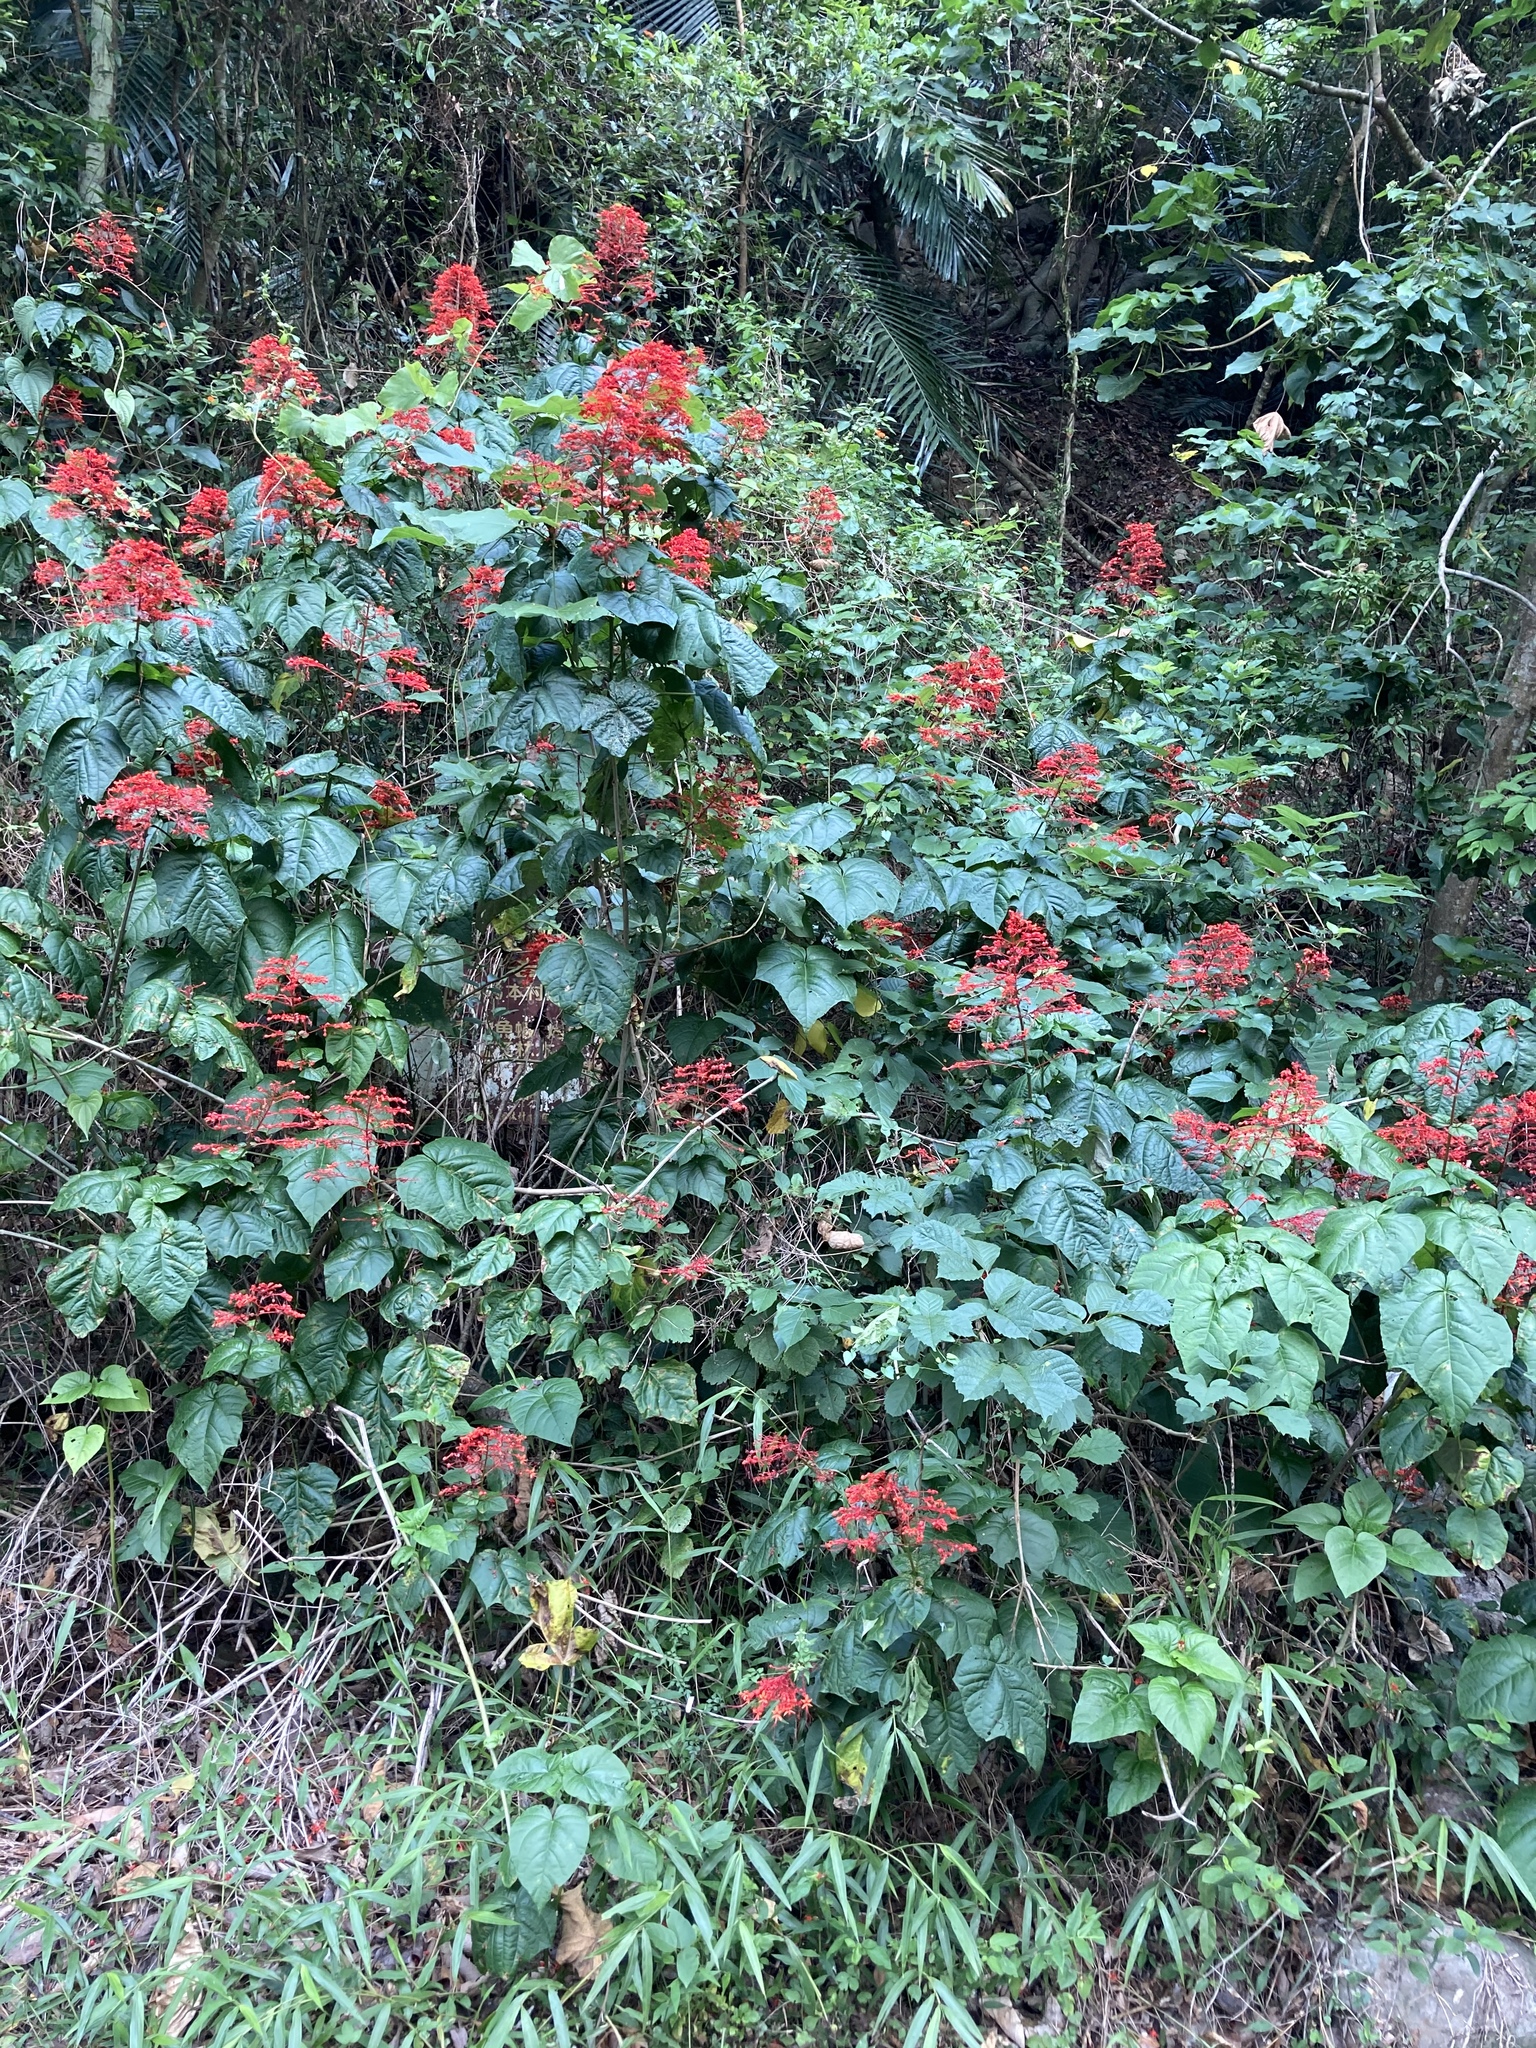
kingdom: Plantae
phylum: Tracheophyta
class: Magnoliopsida
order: Lamiales
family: Lamiaceae
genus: Clerodendrum
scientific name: Clerodendrum japonicum
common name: Japanese glorybower
